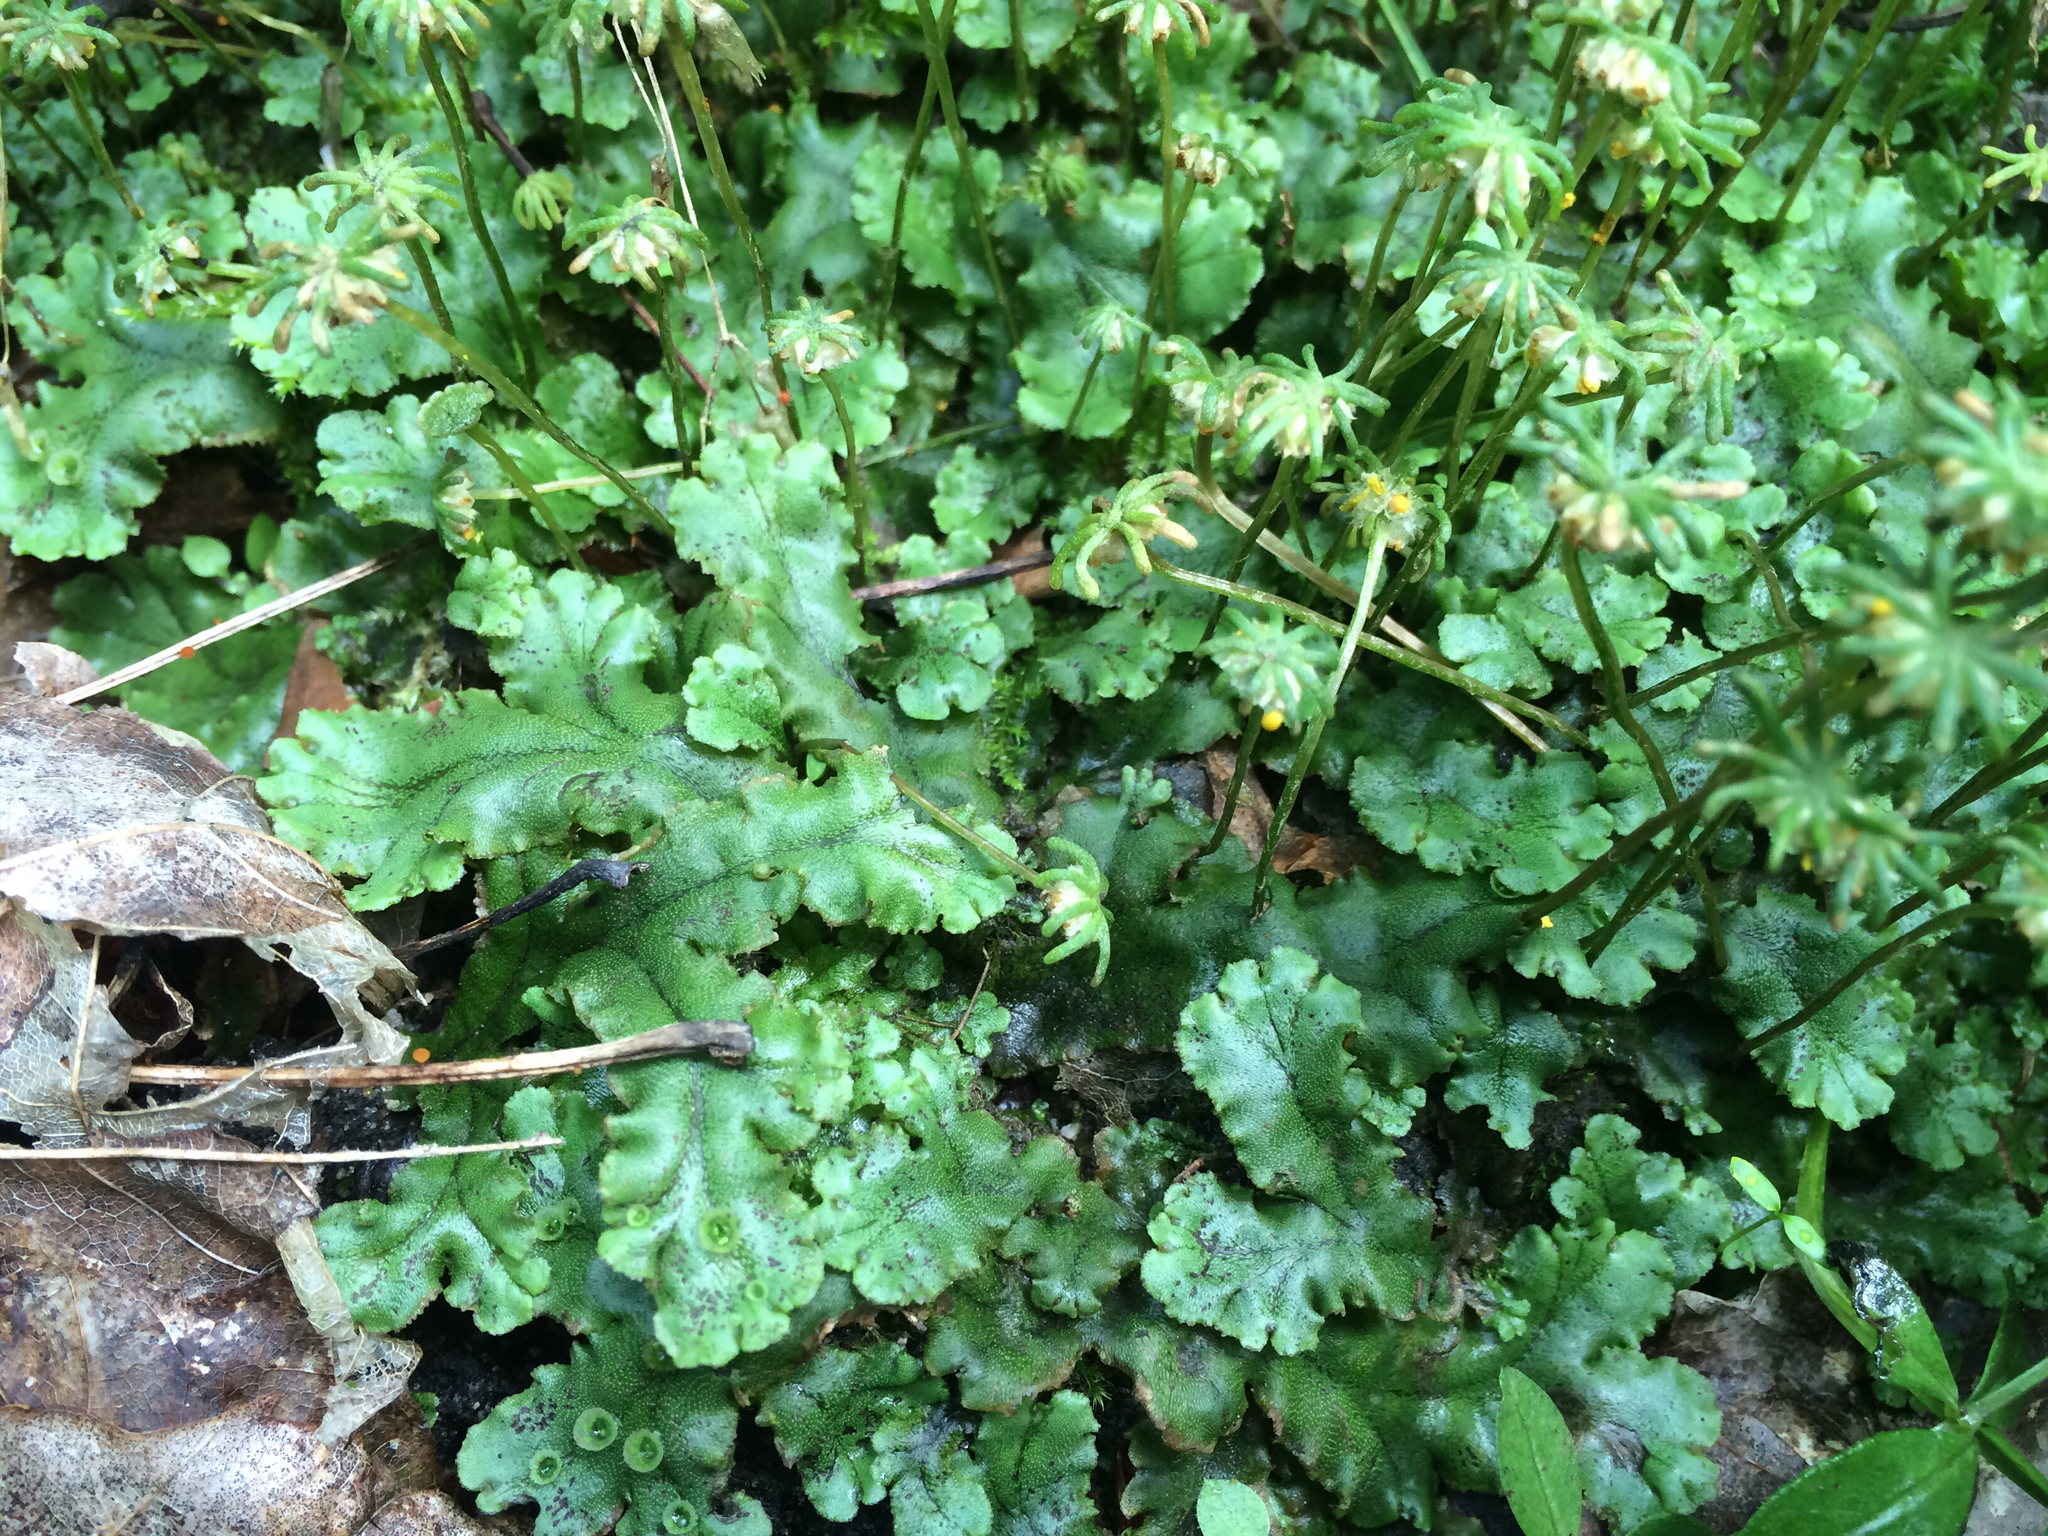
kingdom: Plantae
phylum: Marchantiophyta
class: Marchantiopsida
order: Marchantiales
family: Marchantiaceae
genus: Marchantia
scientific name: Marchantia polymorpha
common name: Common liverwort
